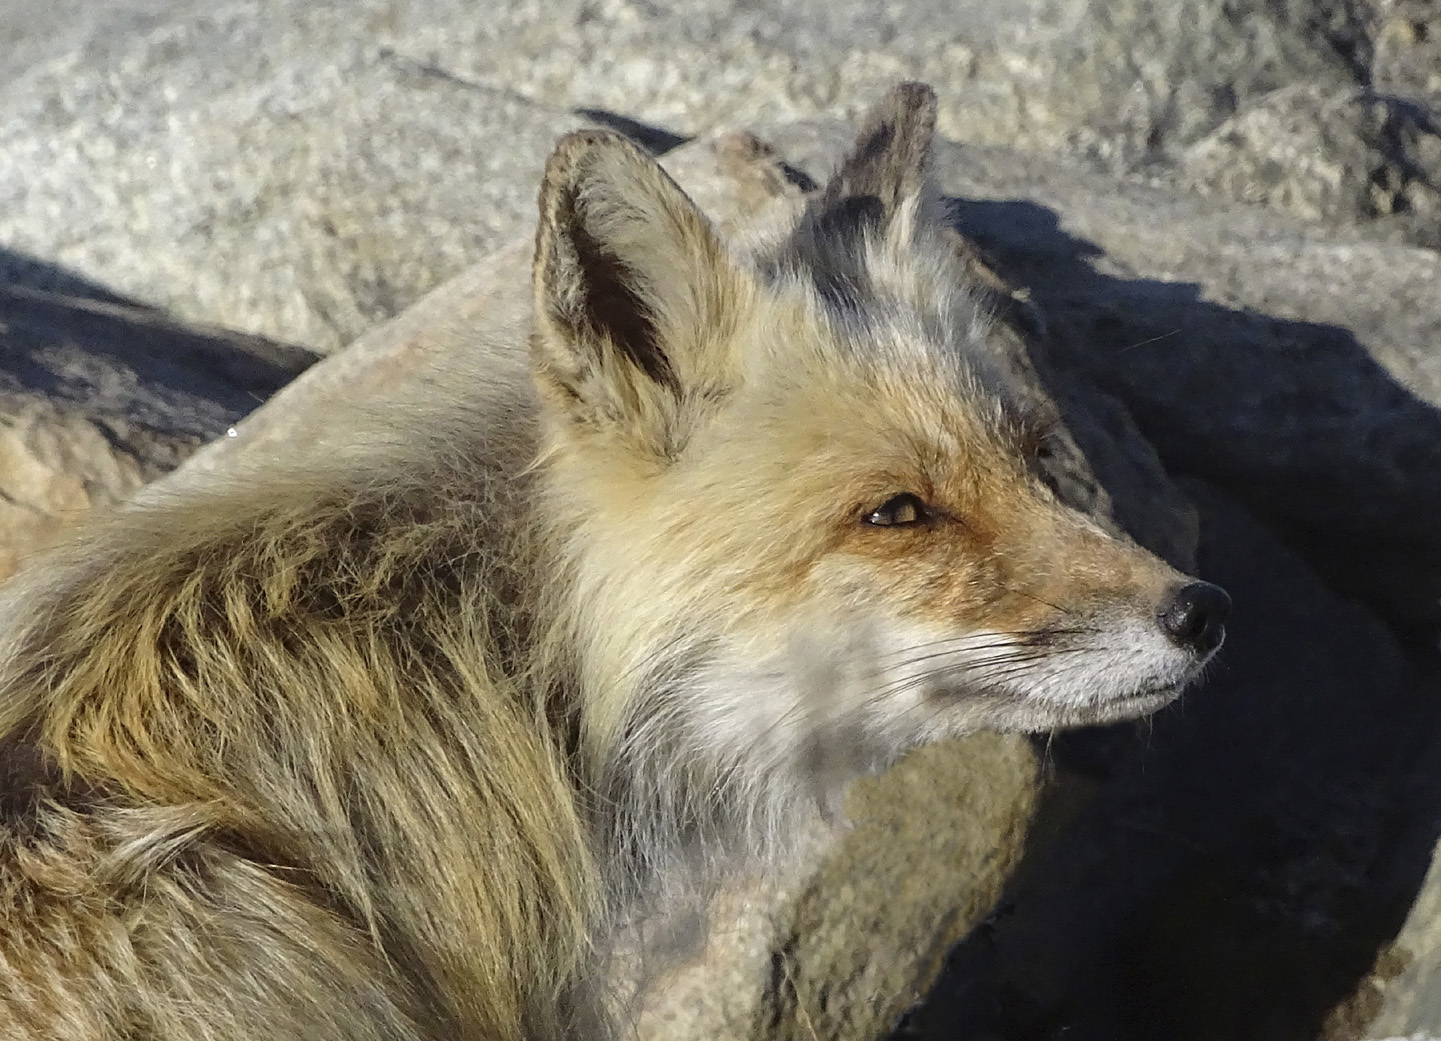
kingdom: Animalia
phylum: Chordata
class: Mammalia
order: Carnivora
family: Canidae
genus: Vulpes
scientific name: Vulpes vulpes
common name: Red fox
